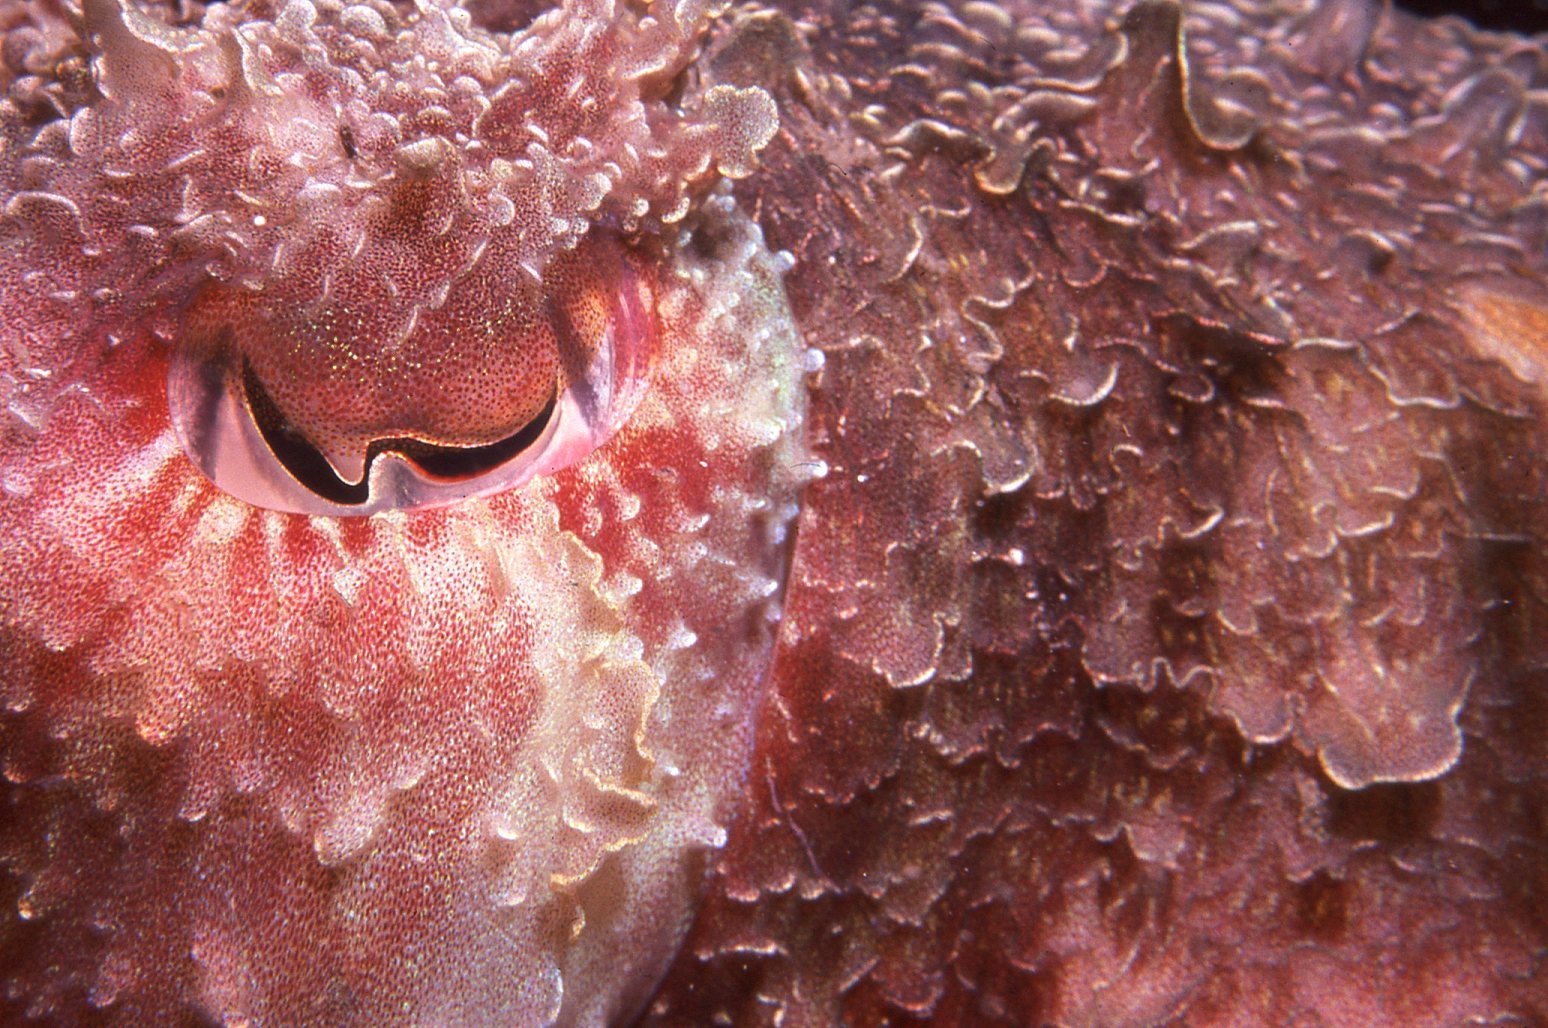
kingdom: Animalia
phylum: Mollusca
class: Cephalopoda
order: Sepiida
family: Sepiidae
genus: Ascarosepion
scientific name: Ascarosepion apama
